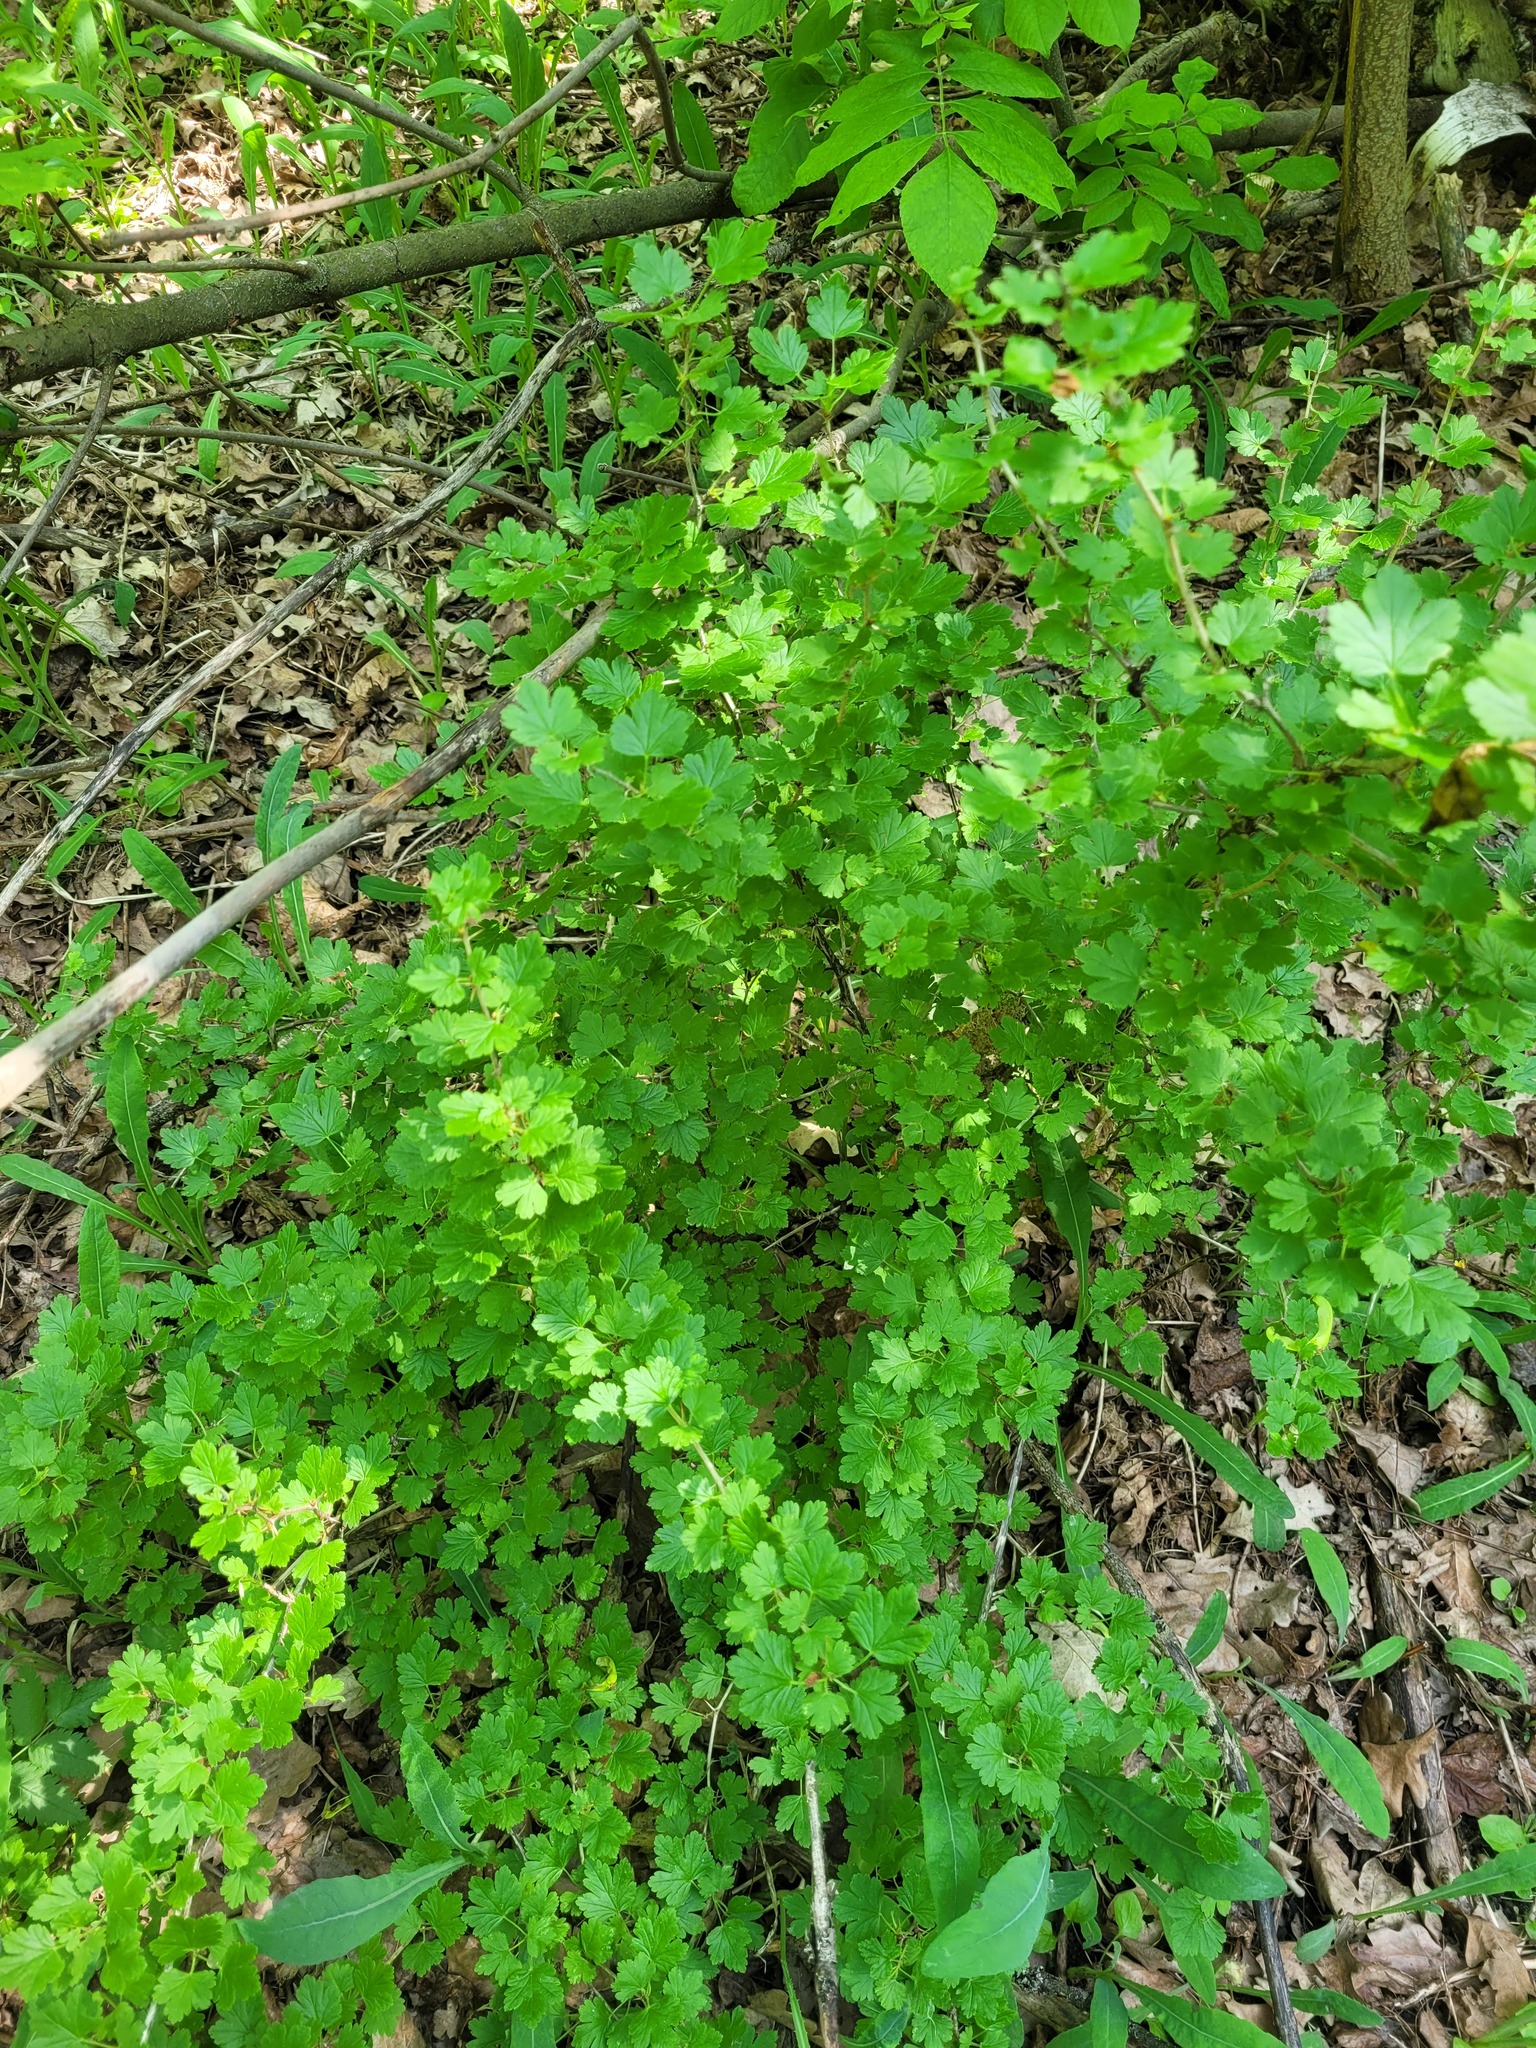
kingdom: Plantae
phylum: Tracheophyta
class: Magnoliopsida
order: Saxifragales
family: Grossulariaceae
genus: Ribes
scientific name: Ribes uva-crispa
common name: Gooseberry
